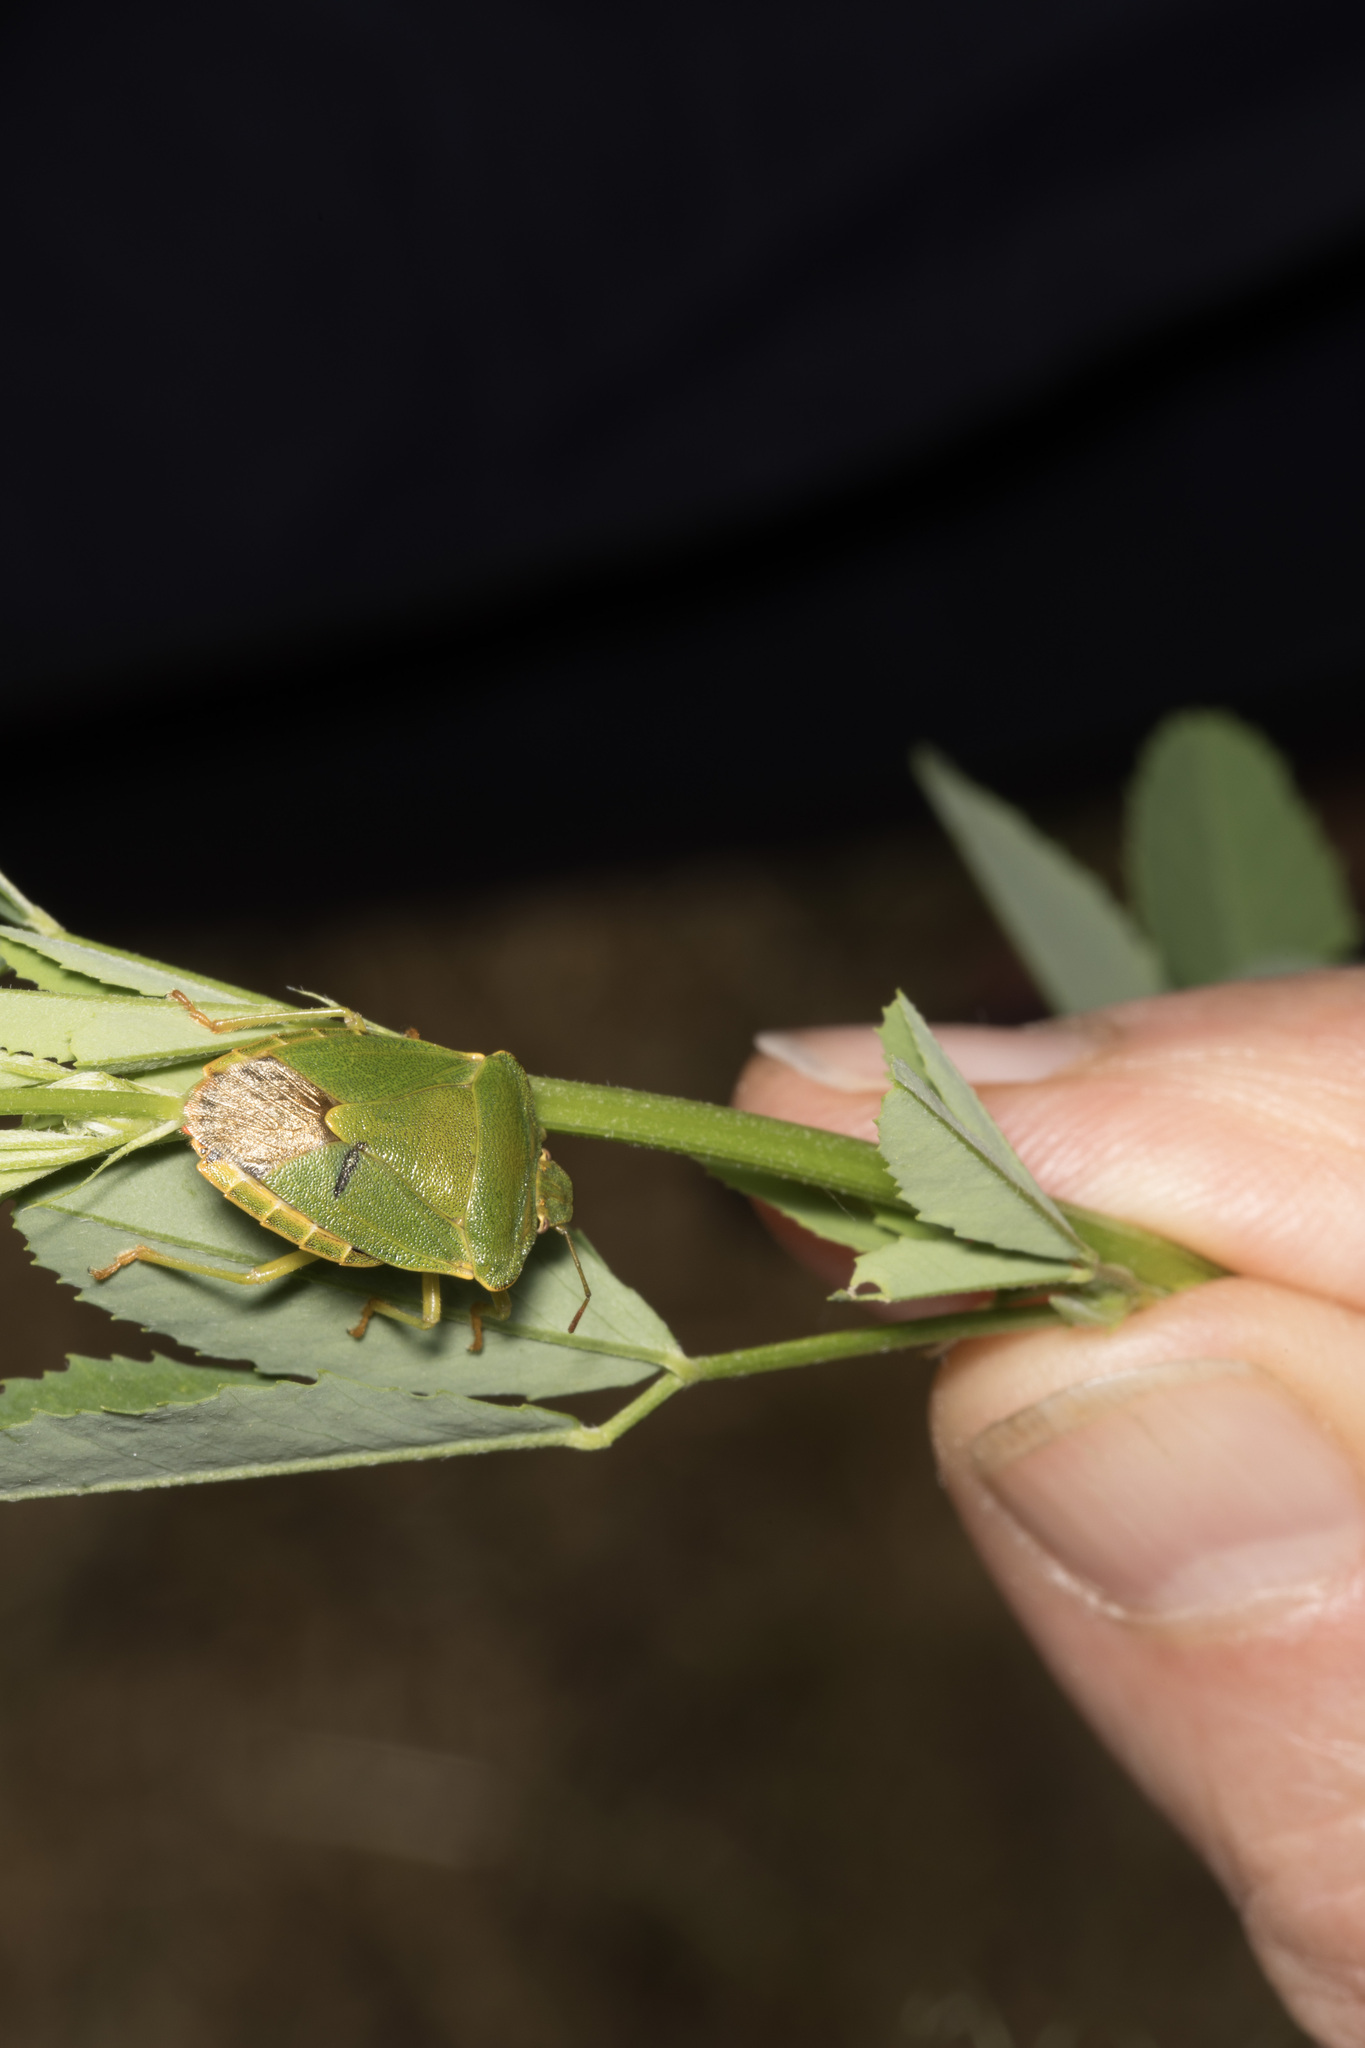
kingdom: Animalia
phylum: Arthropoda
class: Insecta
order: Hemiptera
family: Pentatomidae
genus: Palomena
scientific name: Palomena prasina
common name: Green shieldbug
